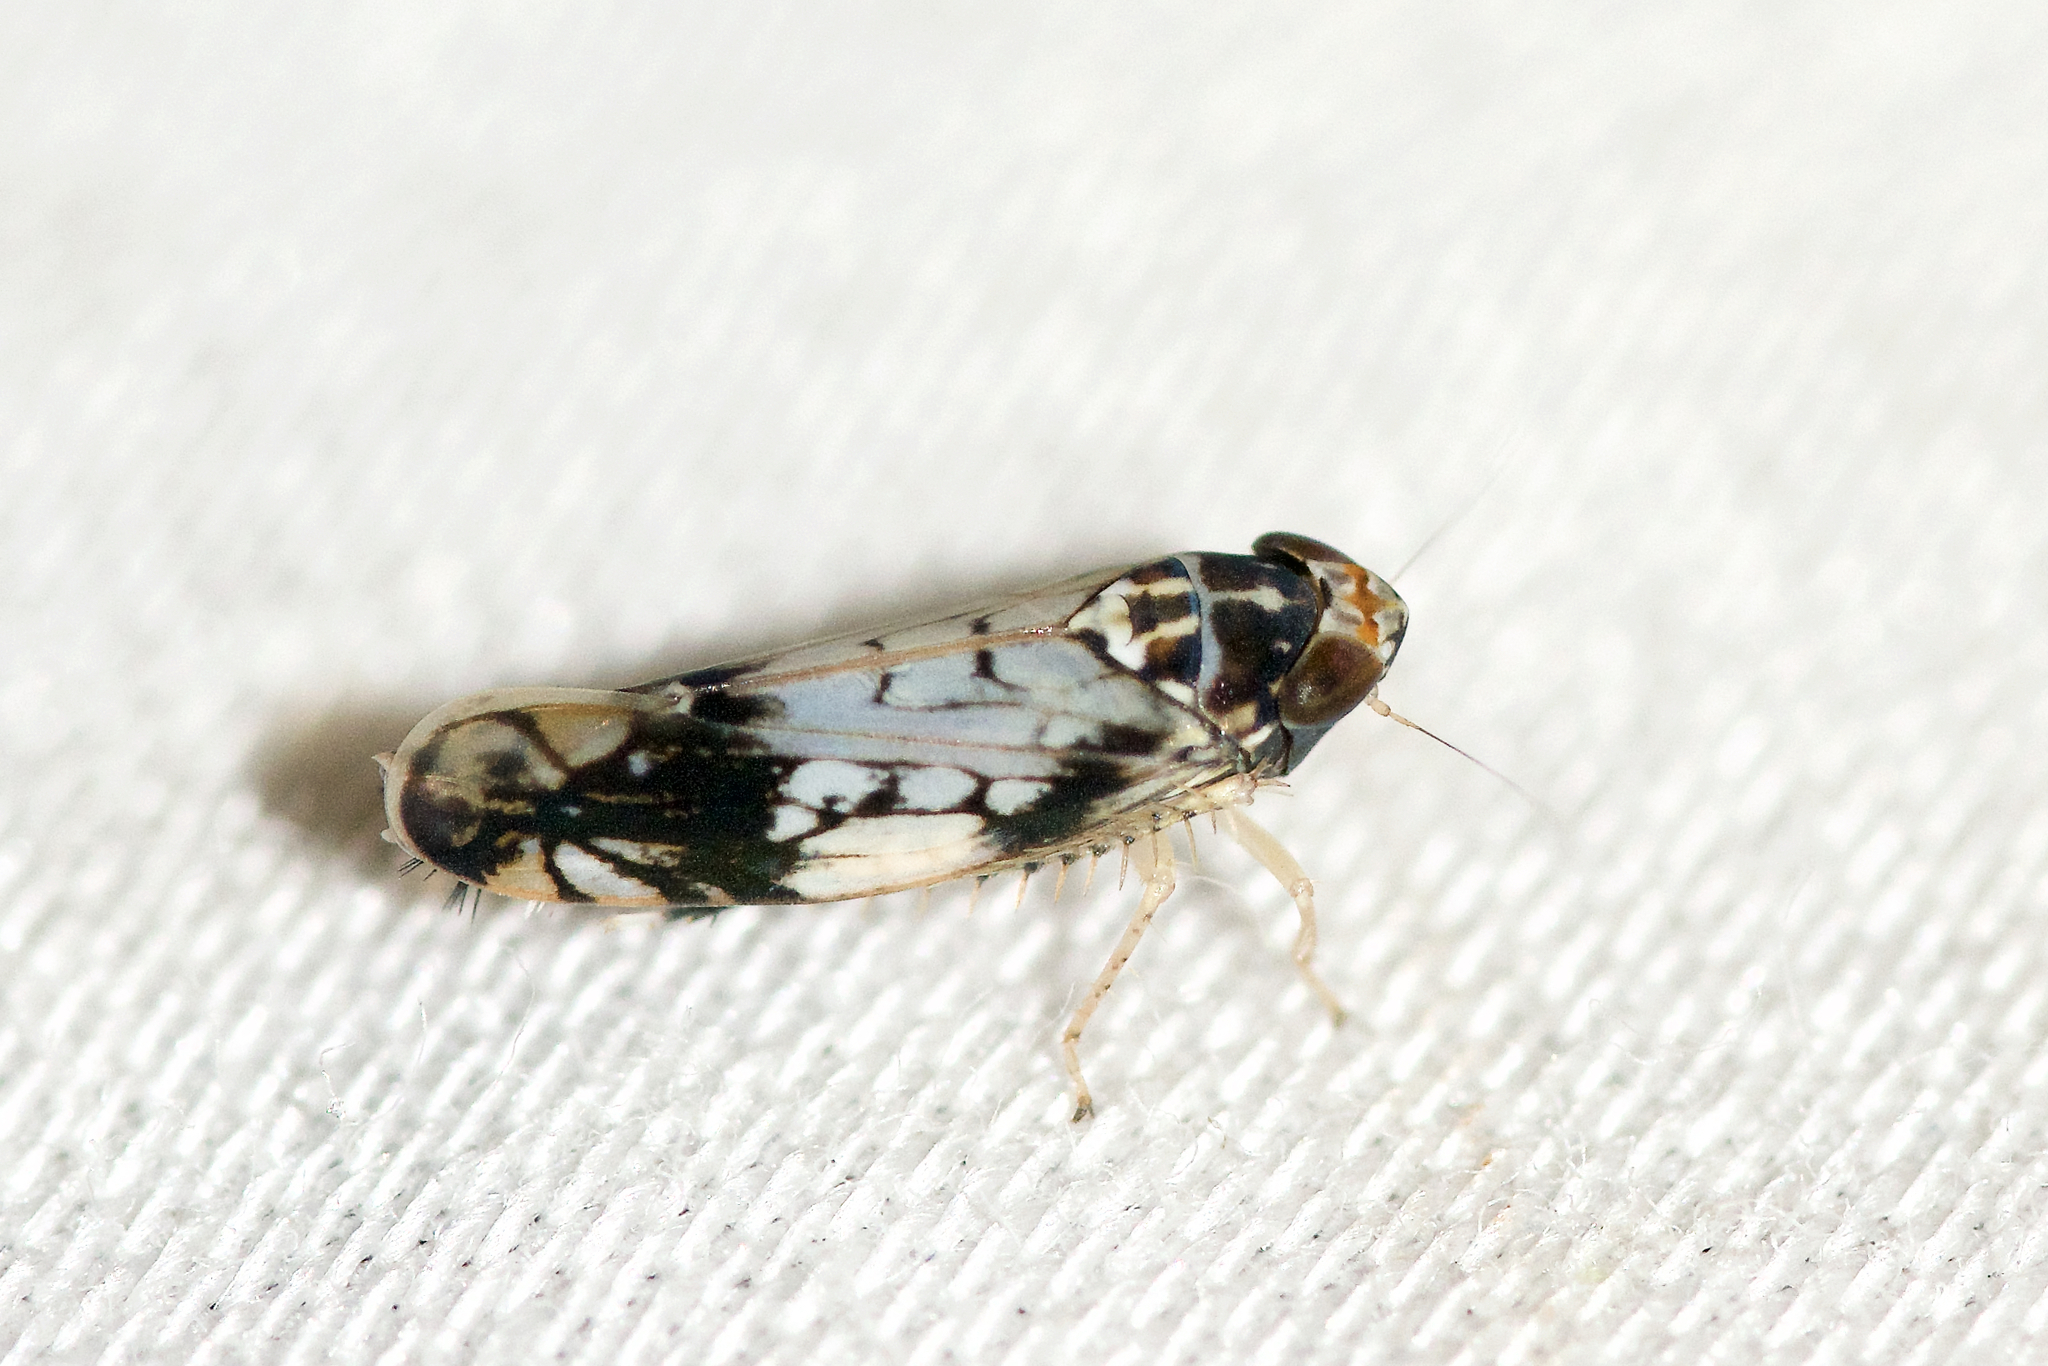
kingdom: Animalia
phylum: Arthropoda
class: Insecta
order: Hemiptera
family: Cicadellidae
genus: Scaphoideus
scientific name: Scaphoideus obtusus
